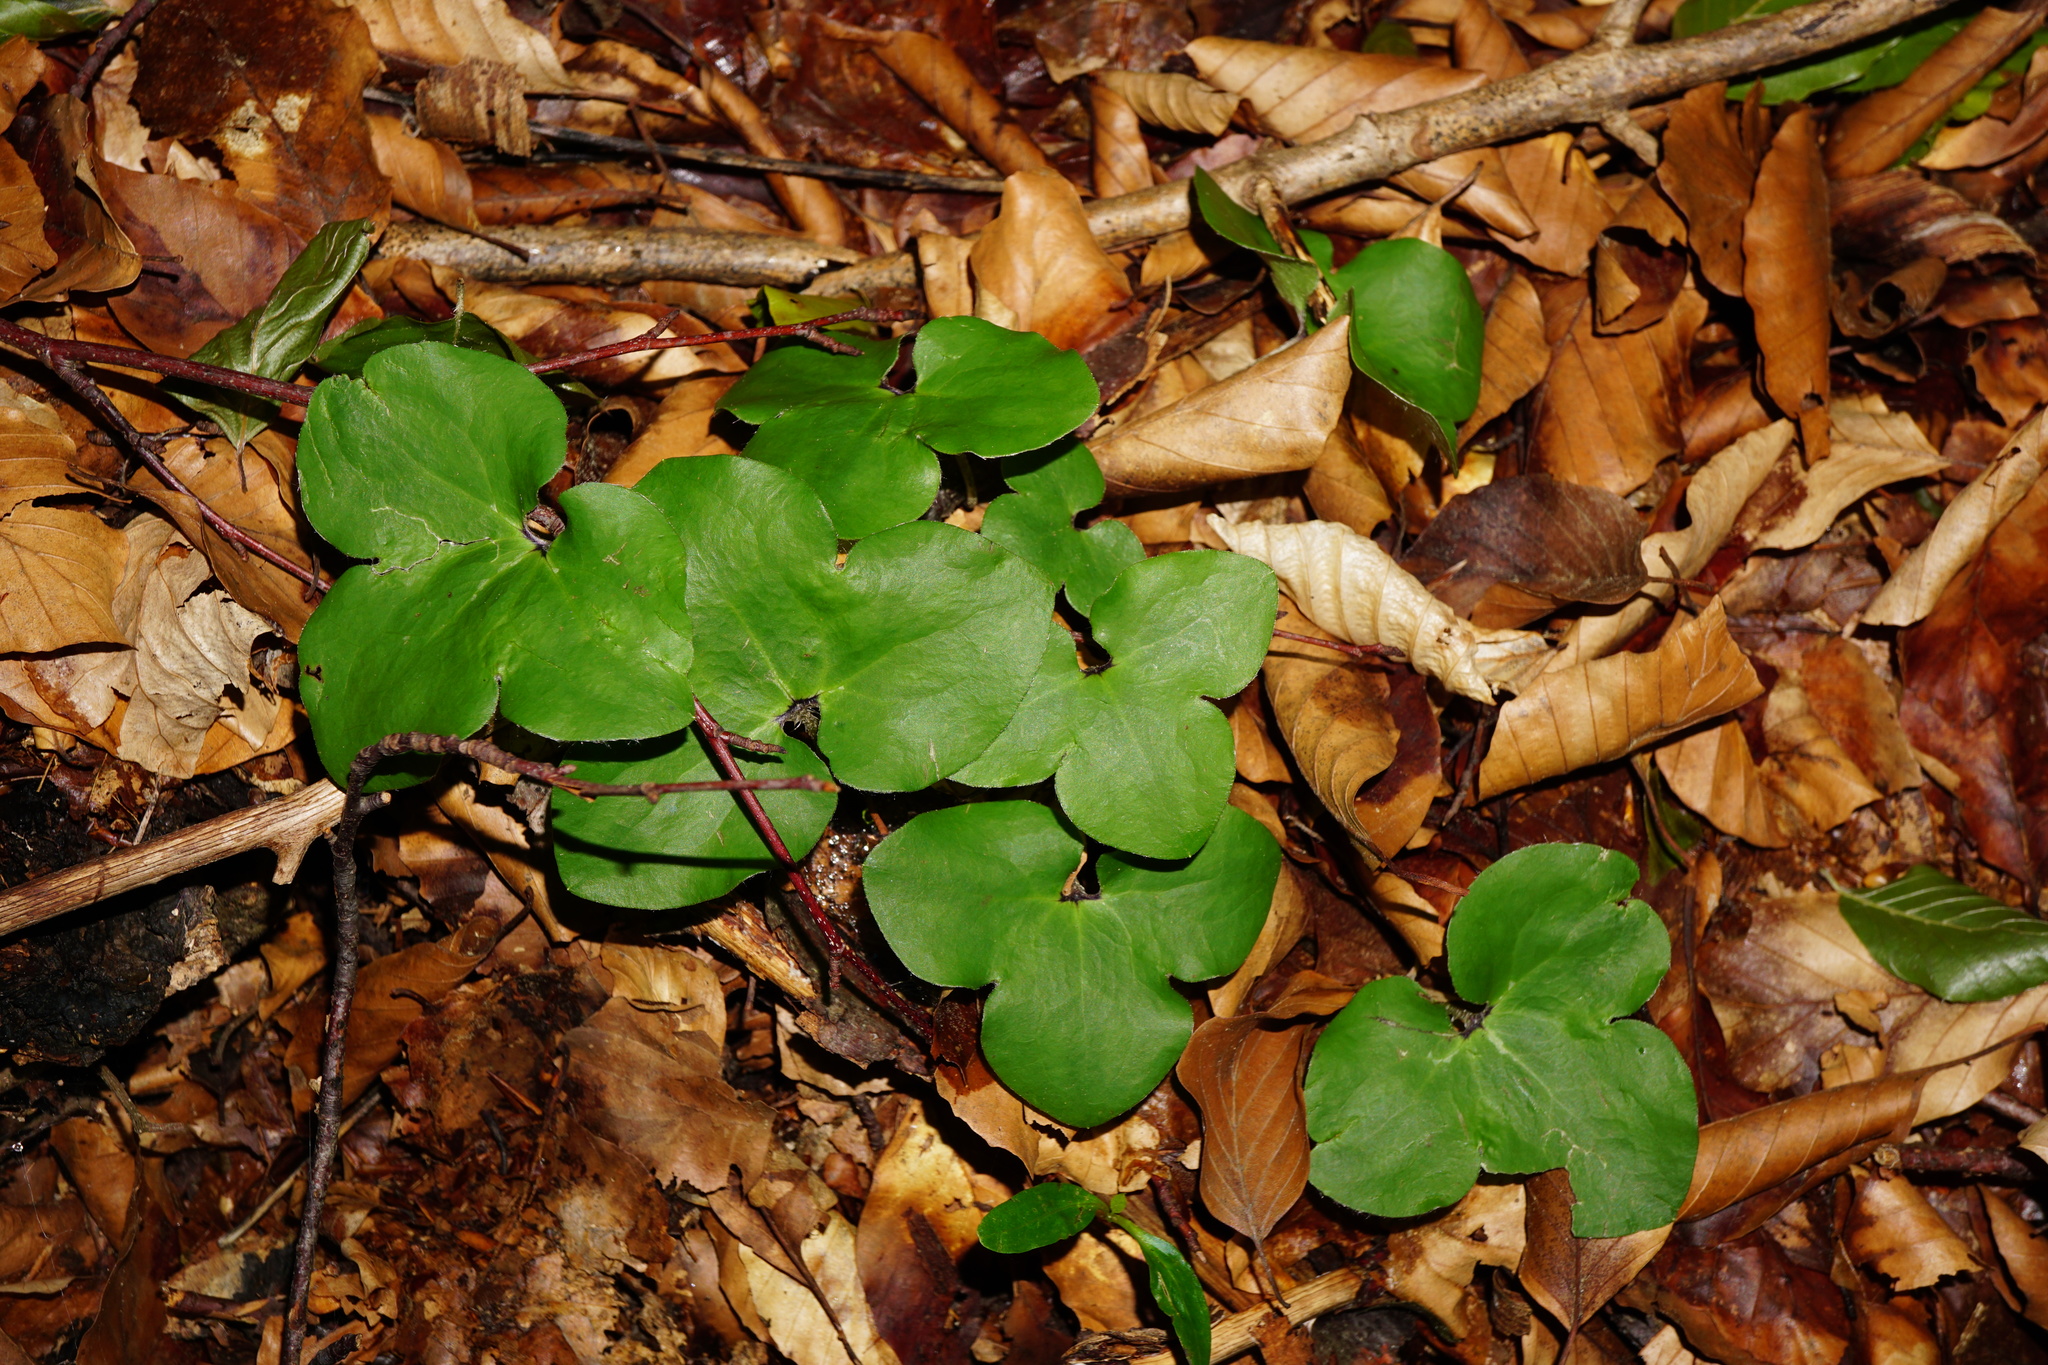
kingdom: Plantae
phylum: Tracheophyta
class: Magnoliopsida
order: Ranunculales
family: Ranunculaceae
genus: Hepatica
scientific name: Hepatica nobilis
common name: Liverleaf
